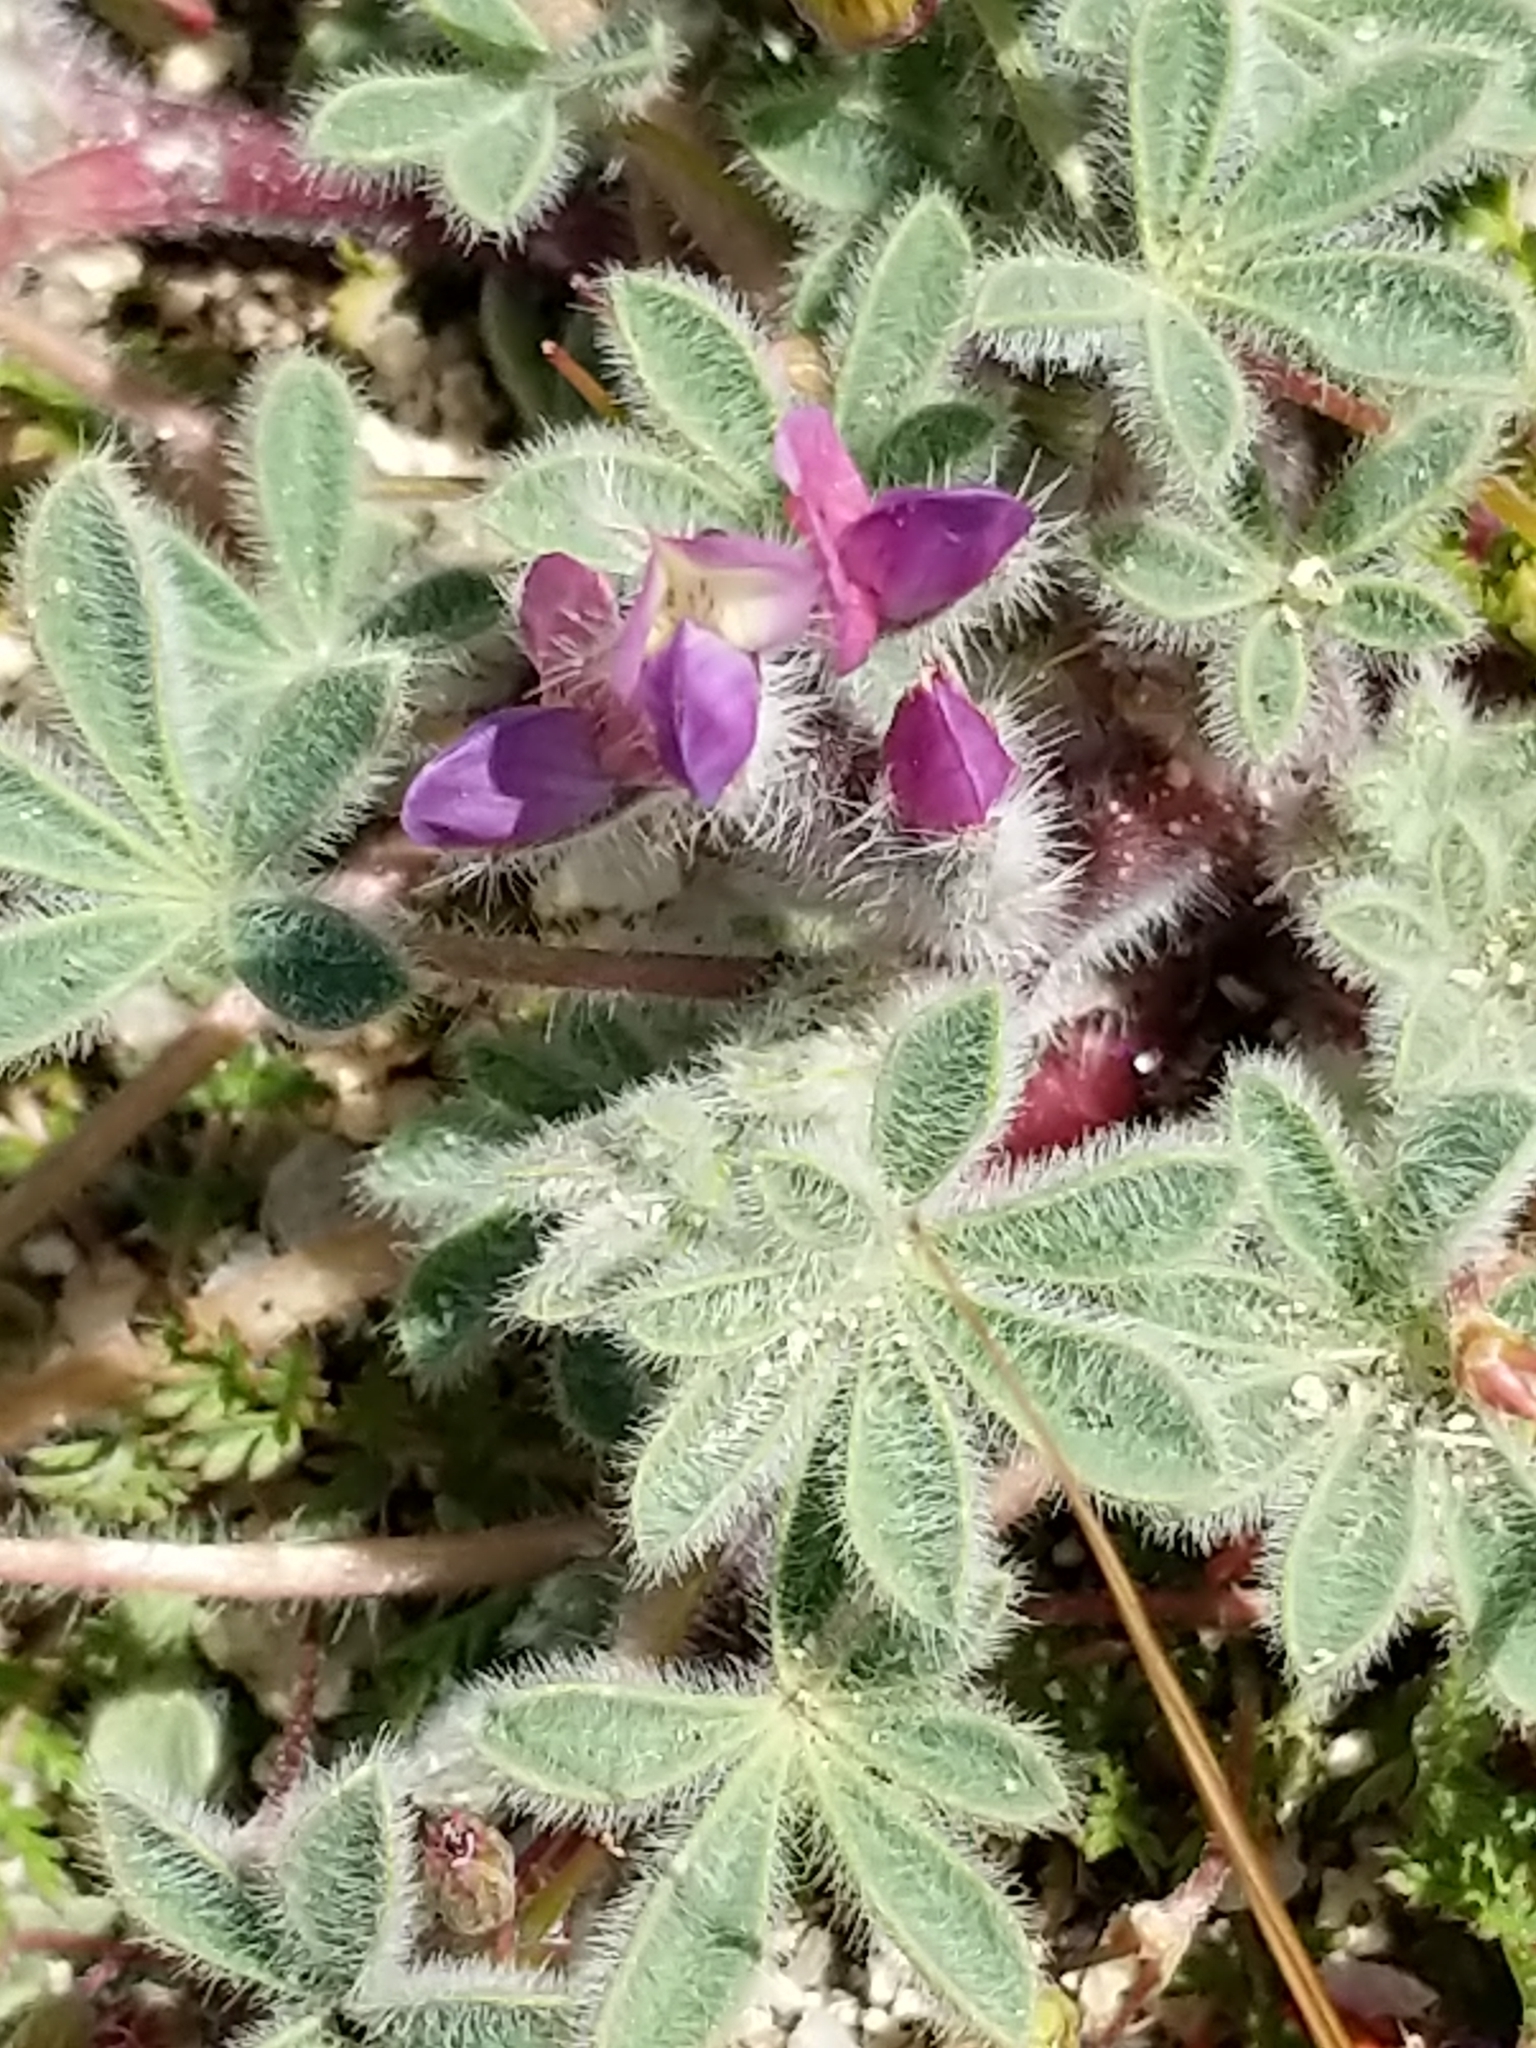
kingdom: Plantae
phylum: Tracheophyta
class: Magnoliopsida
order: Fabales
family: Fabaceae
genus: Lupinus
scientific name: Lupinus concinnus
